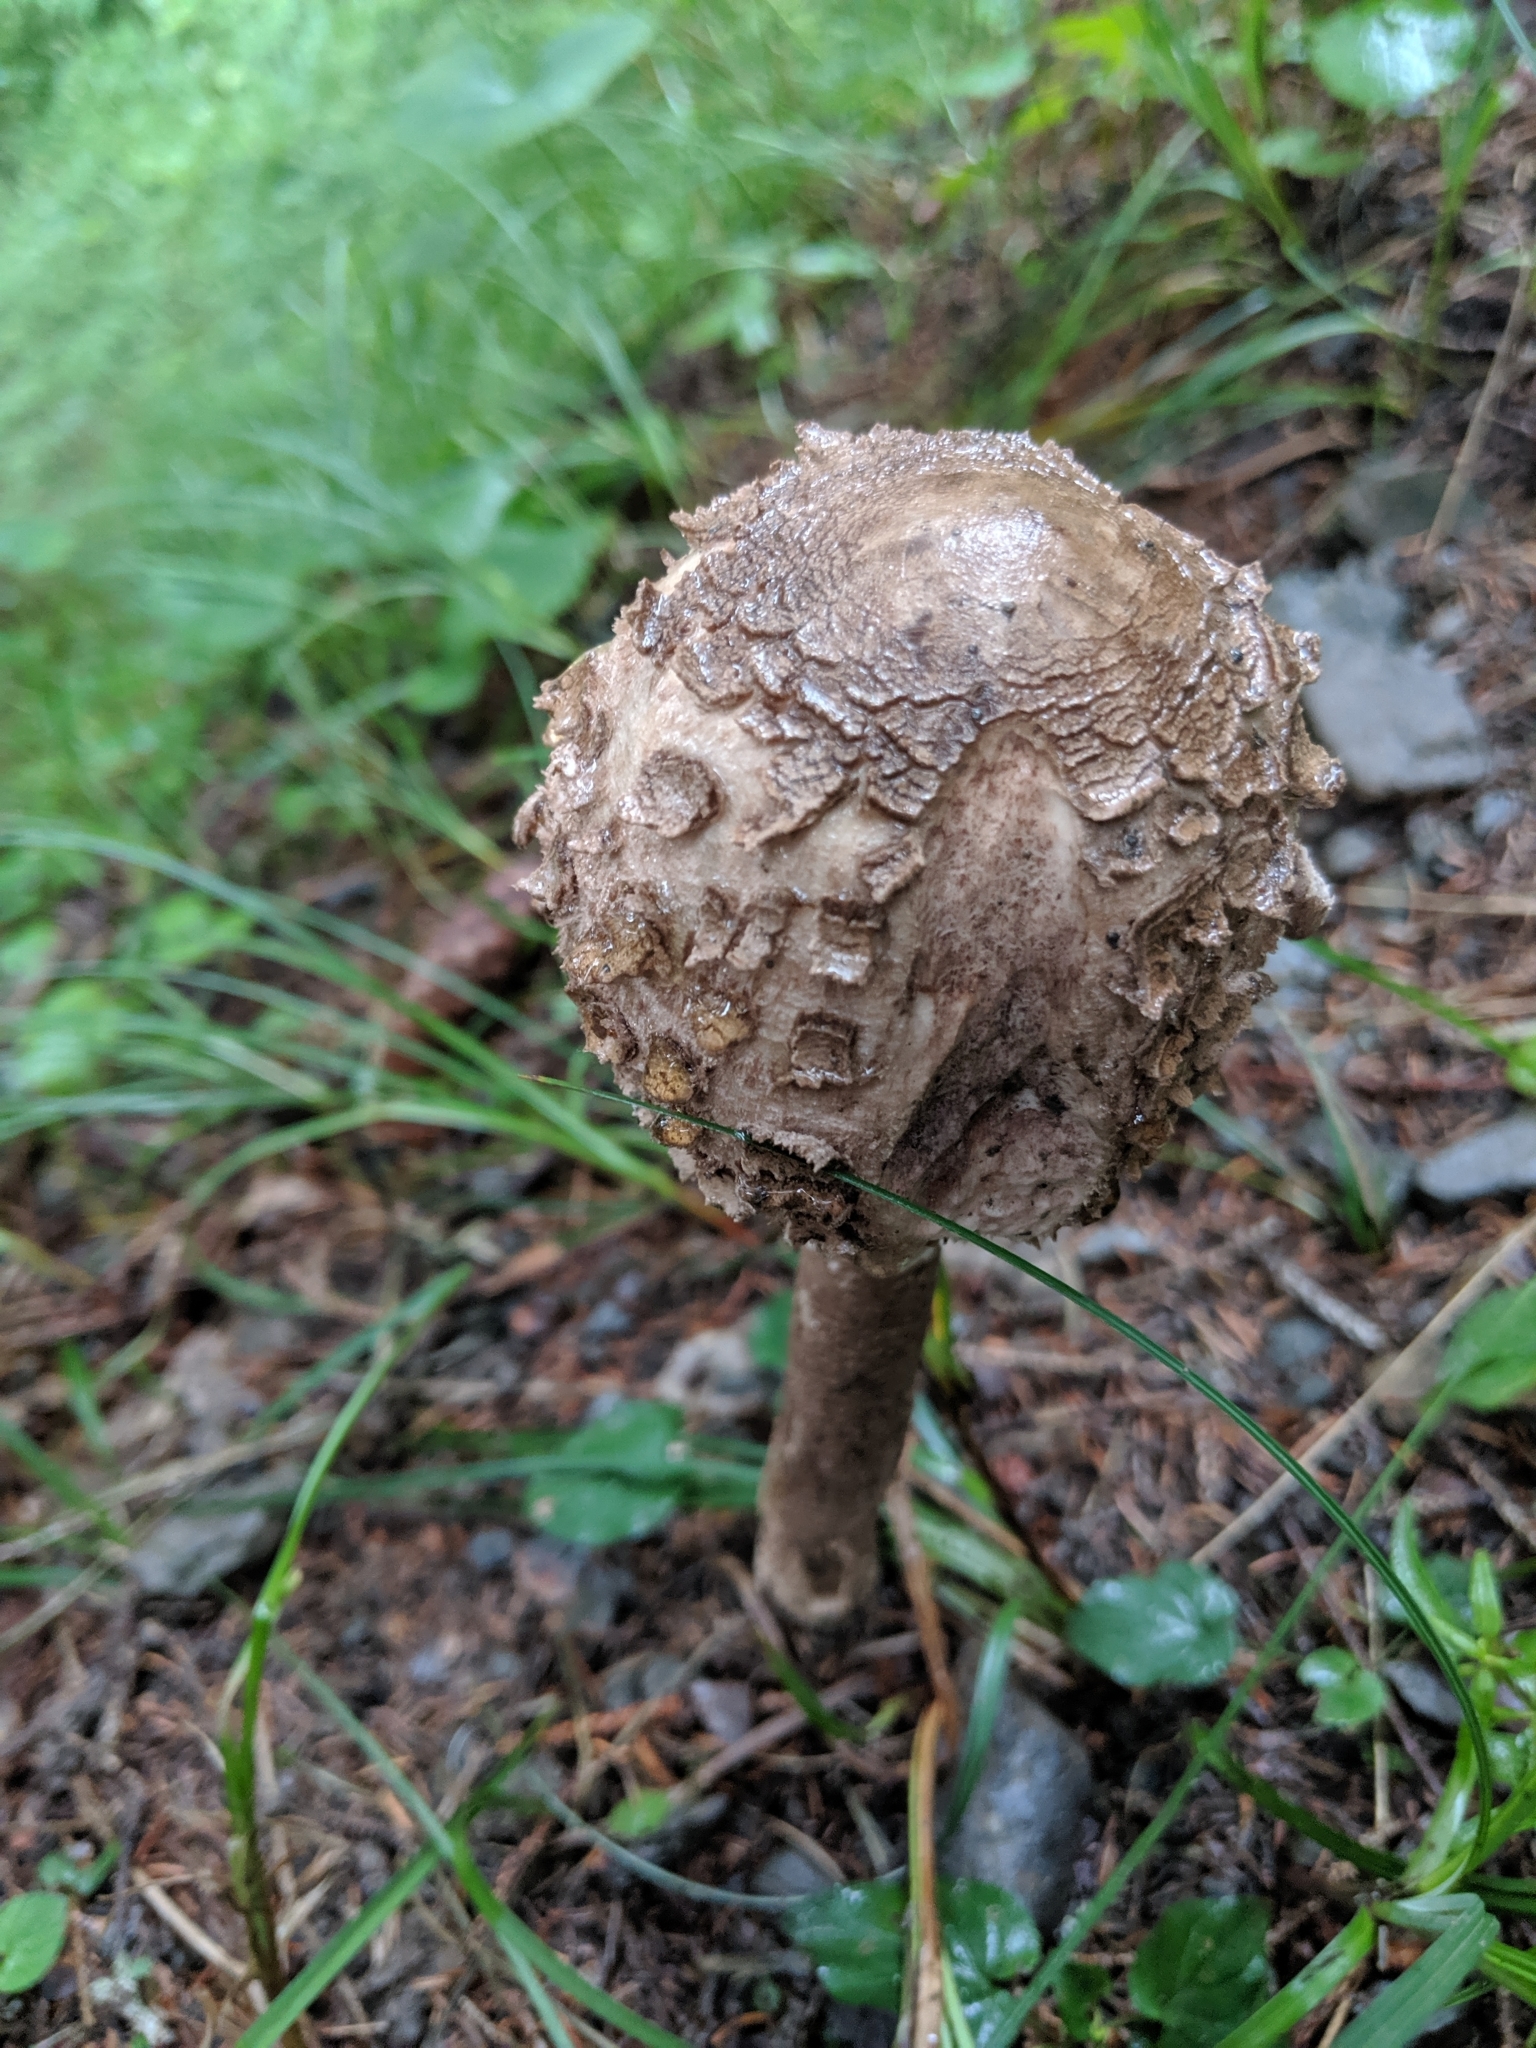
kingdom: Fungi
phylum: Basidiomycota
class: Agaricomycetes
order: Agaricales
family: Agaricaceae
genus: Macrolepiota
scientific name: Macrolepiota procera
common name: Parasol
